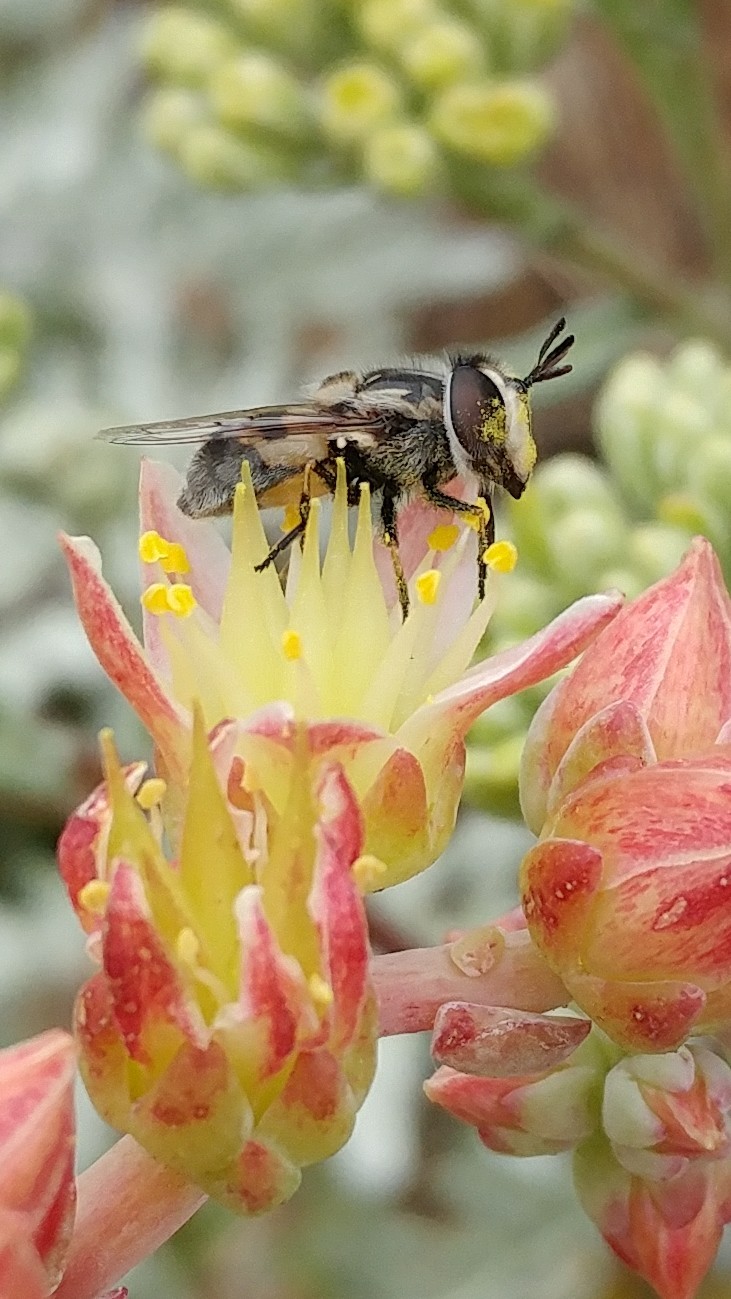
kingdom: Animalia
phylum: Arthropoda
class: Insecta
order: Diptera
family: Syrphidae
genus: Copestylum
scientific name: Copestylum lentum
